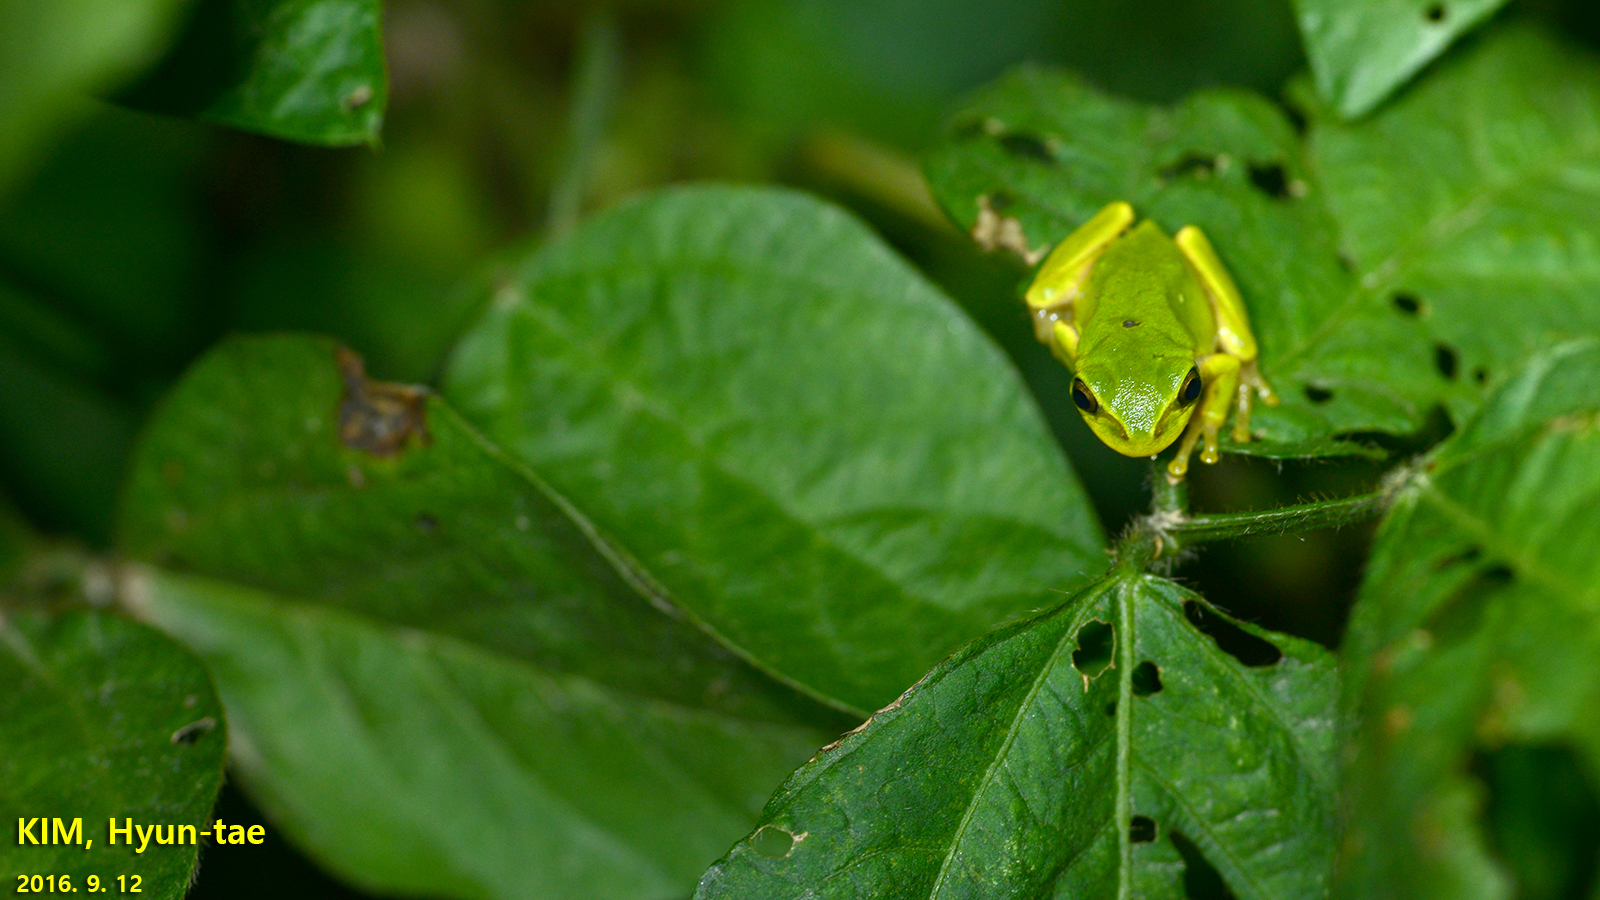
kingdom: Animalia
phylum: Chordata
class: Amphibia
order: Anura
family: Hylidae
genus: Dryophytes
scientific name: Dryophytes japonicus
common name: Japanese treefrog
